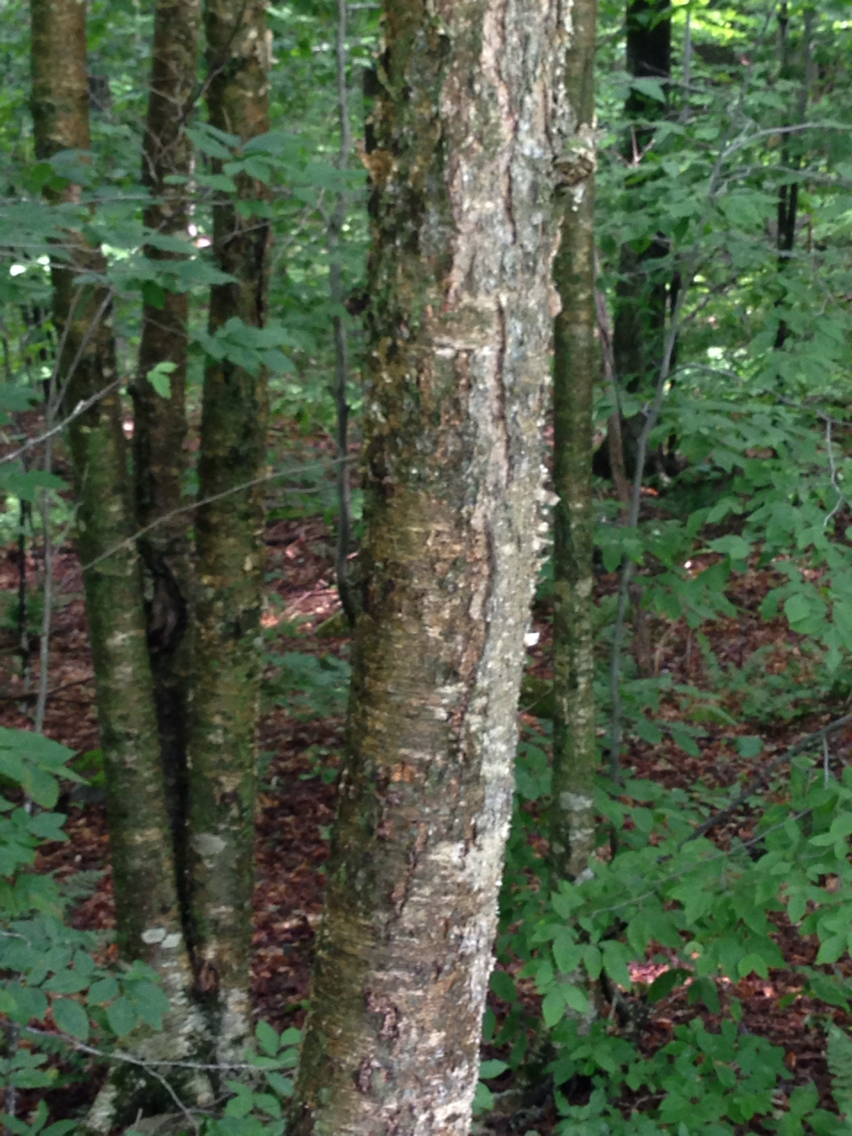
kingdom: Plantae
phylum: Tracheophyta
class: Magnoliopsida
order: Fagales
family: Betulaceae
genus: Betula
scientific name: Betula alleghaniensis
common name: Yellow birch
